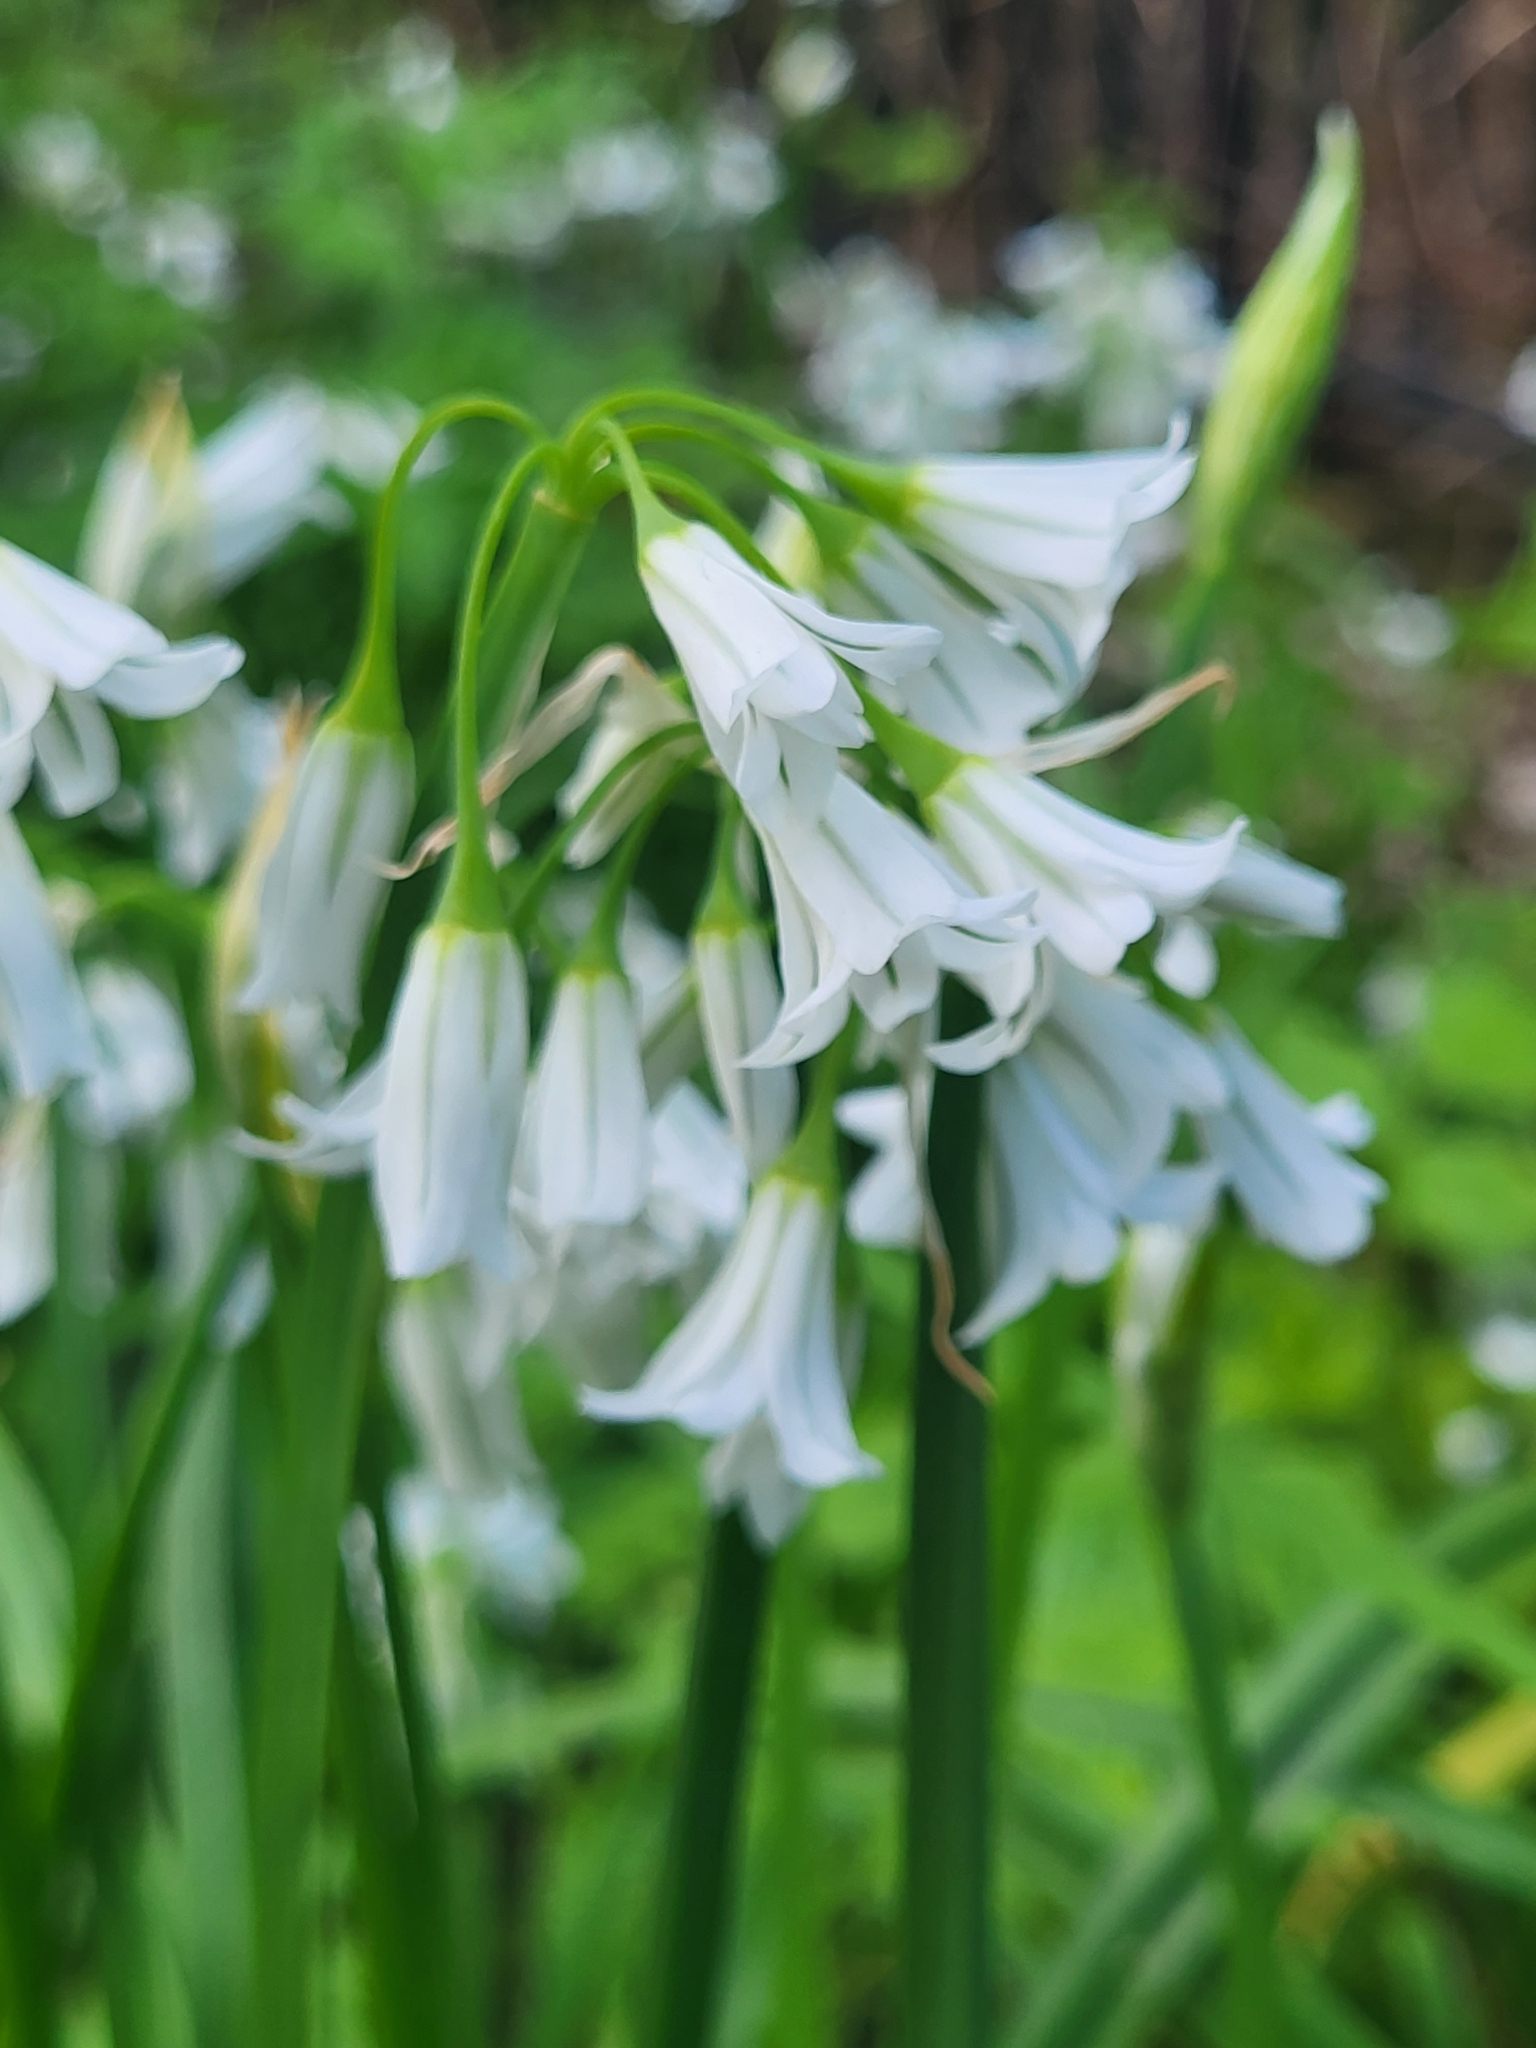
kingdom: Plantae
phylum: Tracheophyta
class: Liliopsida
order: Asparagales
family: Amaryllidaceae
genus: Allium
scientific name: Allium triquetrum
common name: Three-cornered garlic
